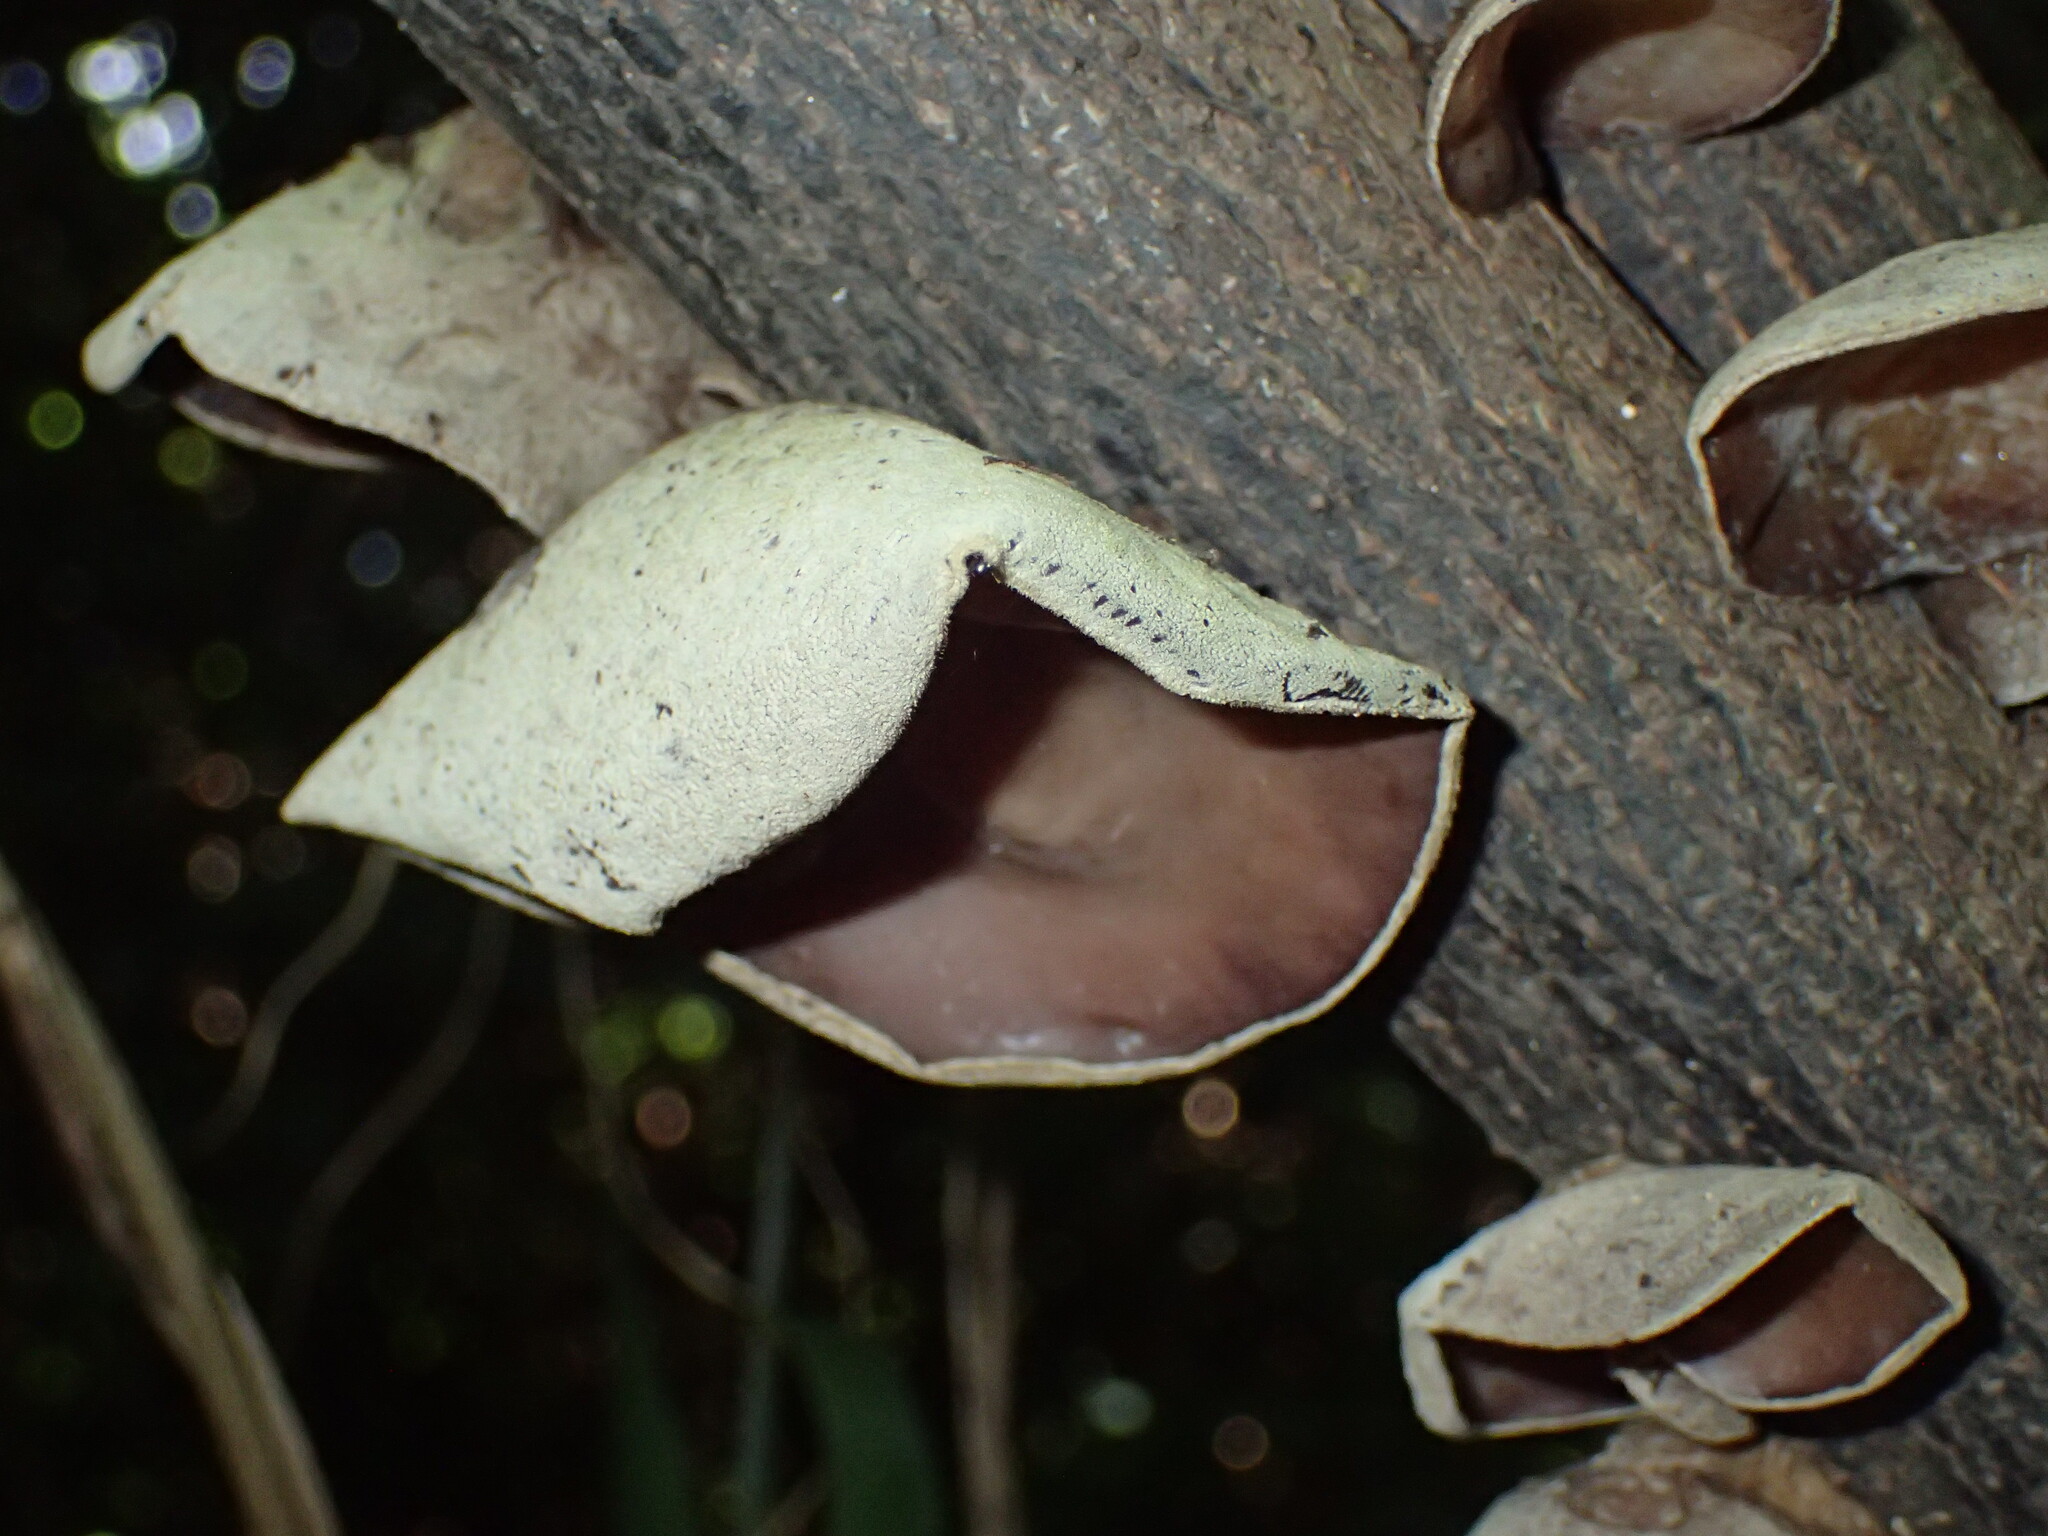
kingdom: Fungi
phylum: Basidiomycota
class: Agaricomycetes
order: Auriculariales
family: Auriculariaceae
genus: Auricularia
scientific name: Auricularia cornea
